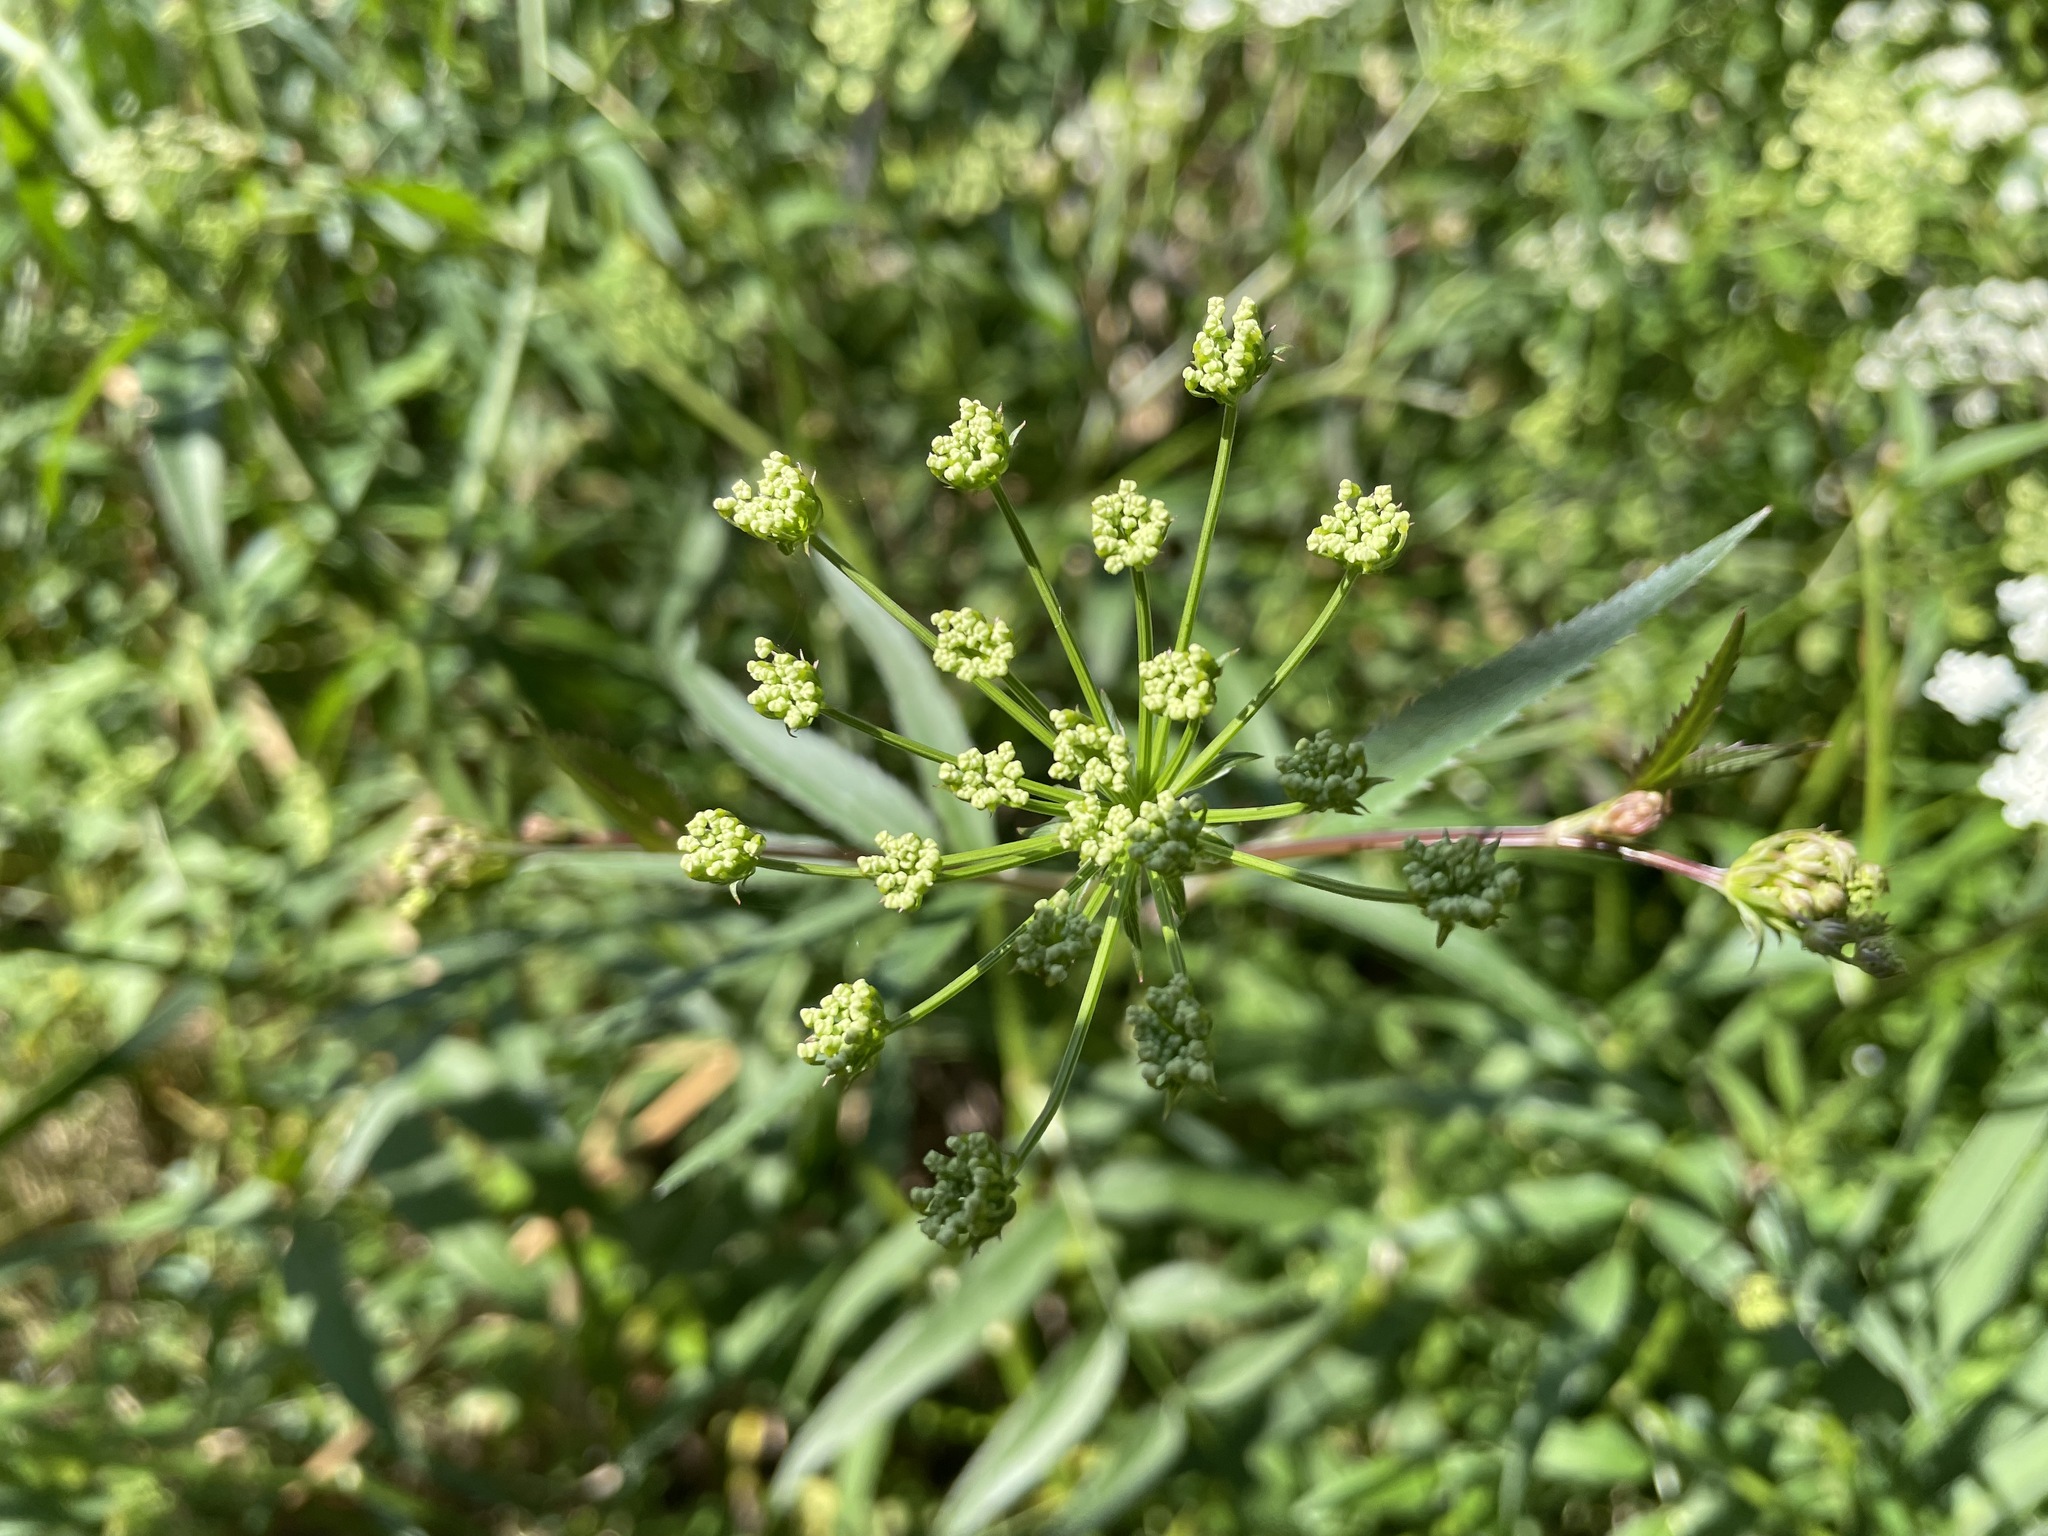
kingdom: Plantae
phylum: Tracheophyta
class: Magnoliopsida
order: Apiales
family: Apiaceae
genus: Sium
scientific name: Sium suave
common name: Hemlock water-parsnip
